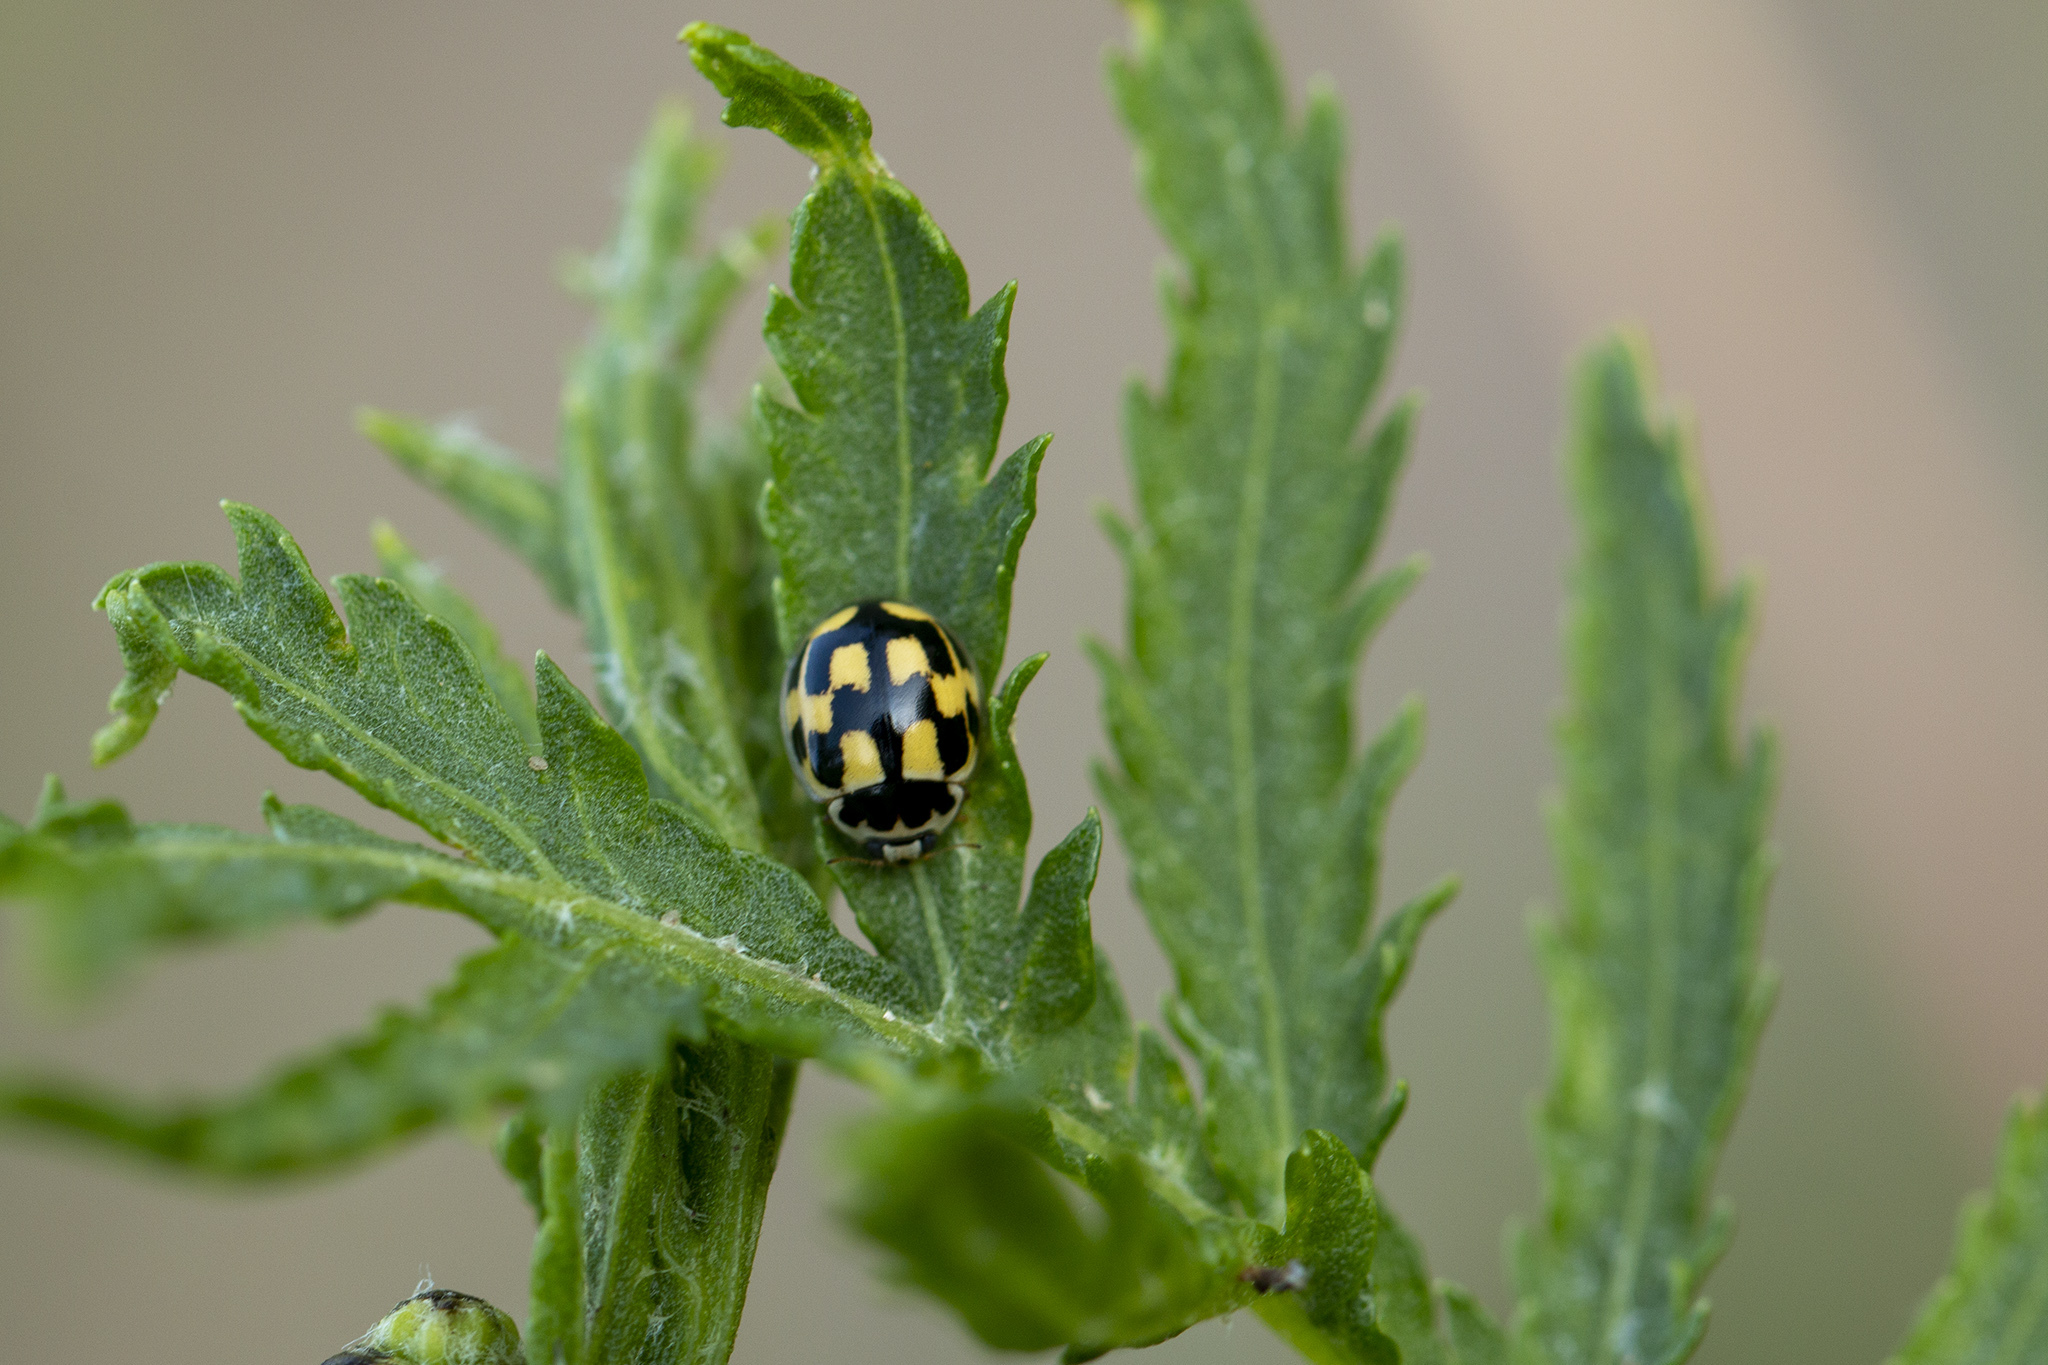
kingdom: Animalia
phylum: Arthropoda
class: Insecta
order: Coleoptera
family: Coccinellidae
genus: Propylaea
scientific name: Propylaea quatuordecimpunctata
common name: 14-spotted ladybird beetle
